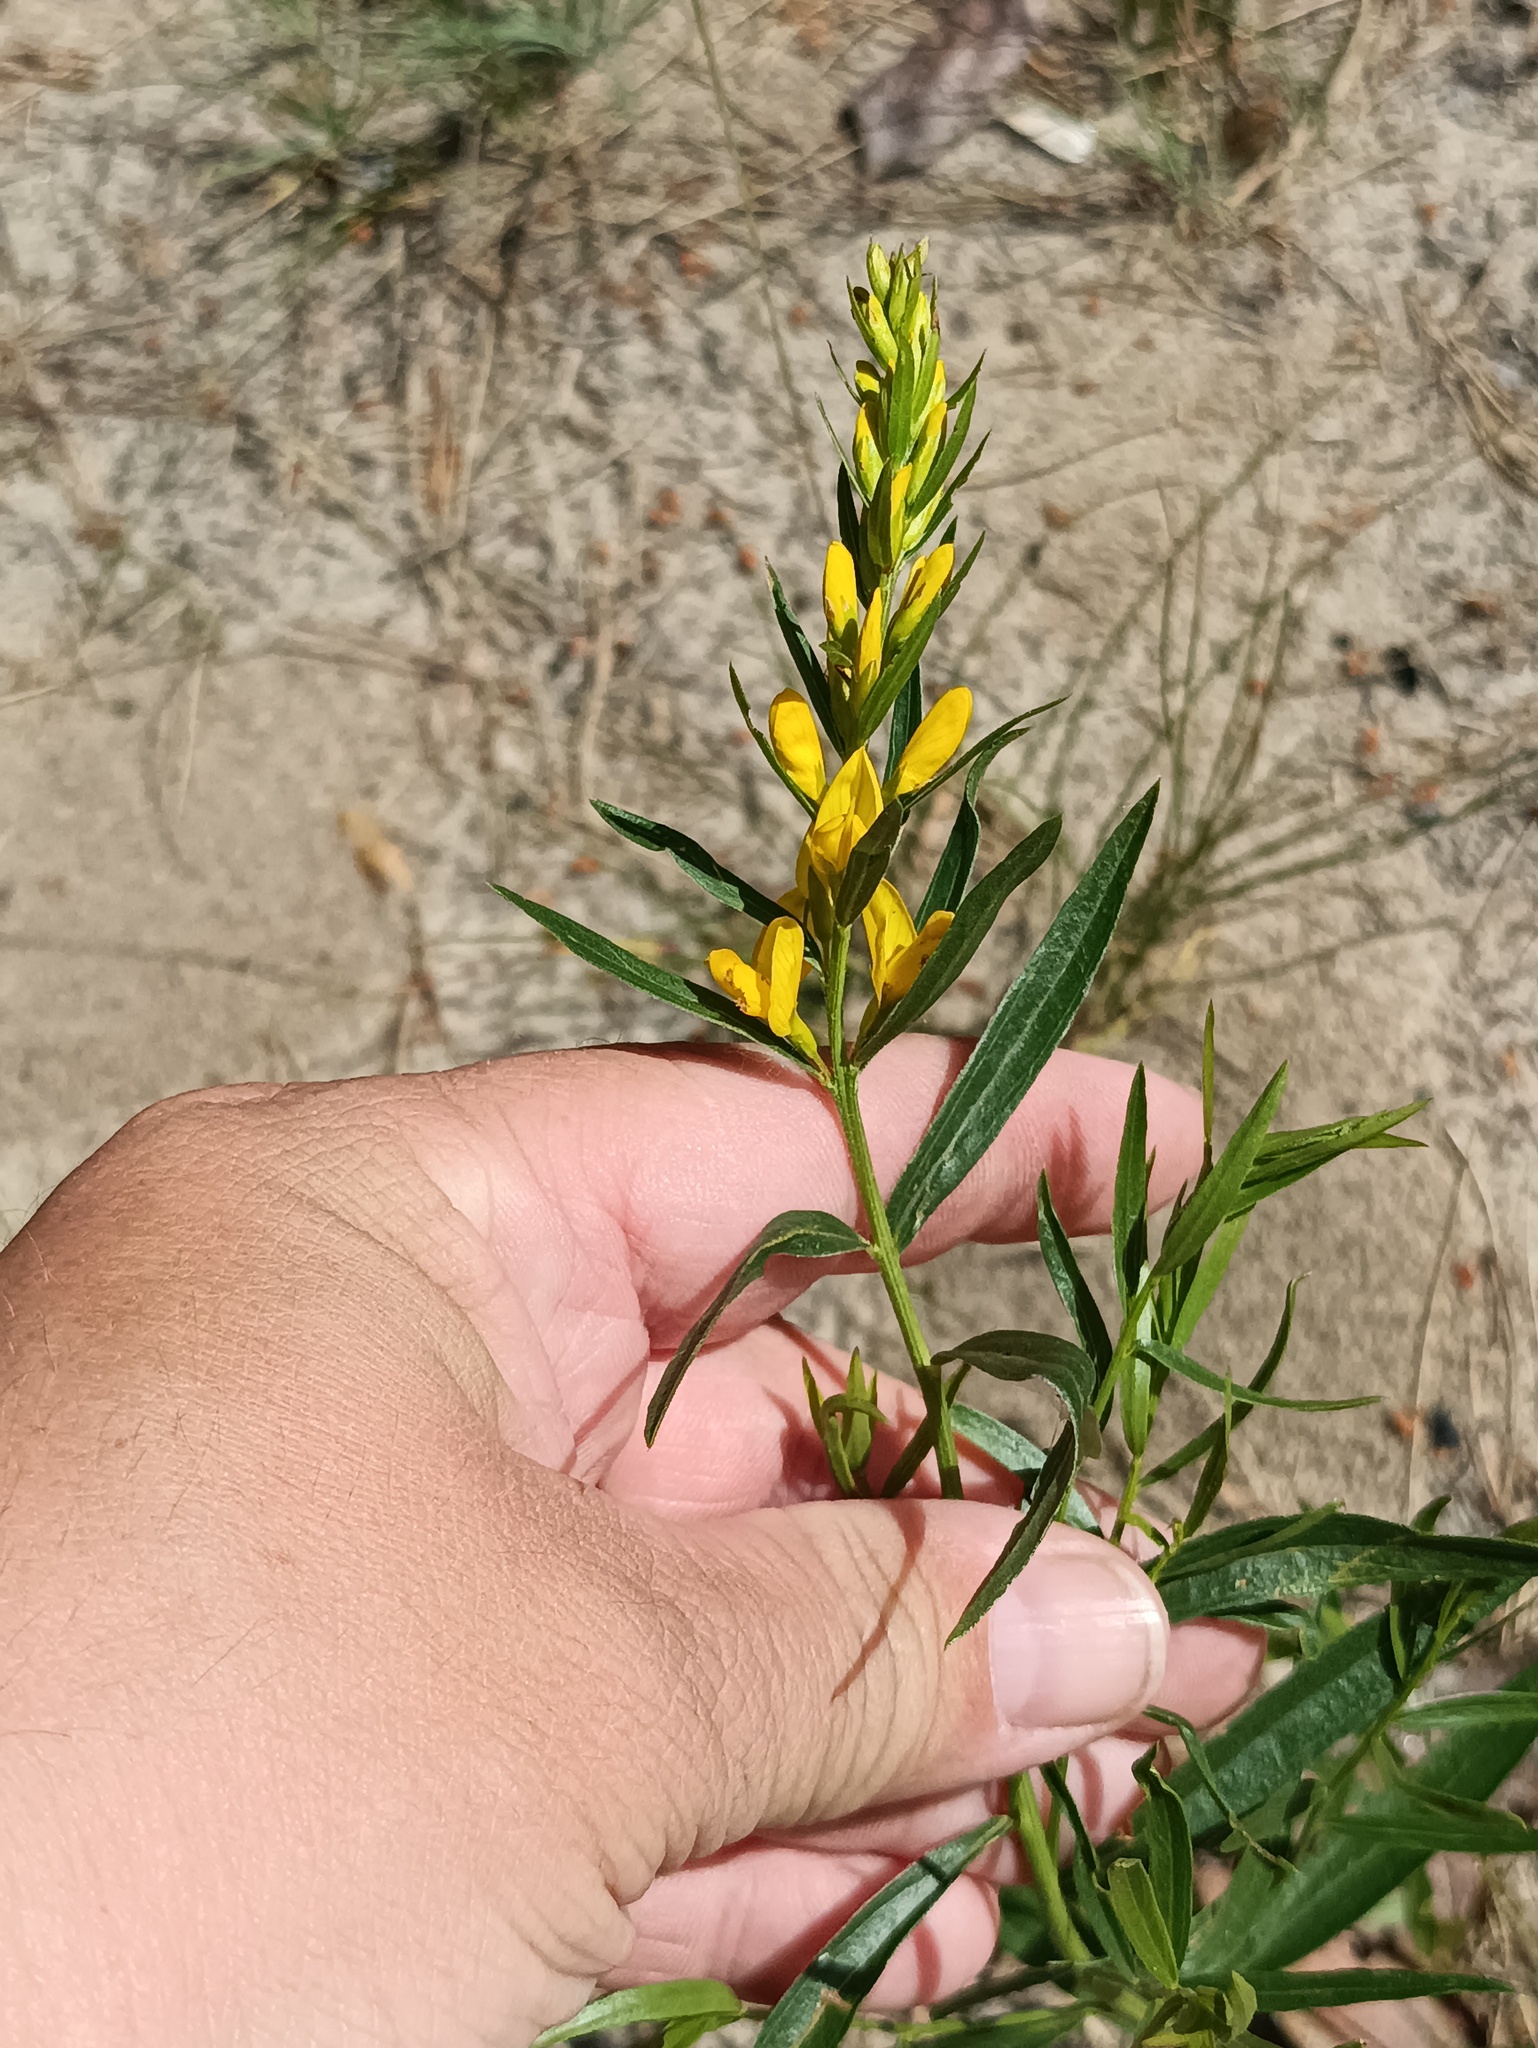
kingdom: Plantae
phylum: Tracheophyta
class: Magnoliopsida
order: Fabales
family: Fabaceae
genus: Genista
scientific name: Genista tinctoria
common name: Dyer's greenweed
